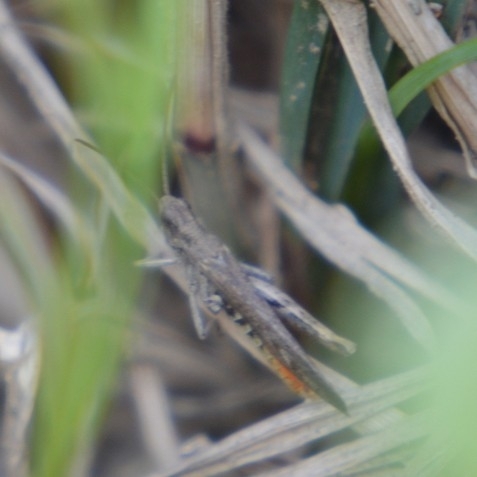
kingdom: Animalia
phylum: Arthropoda
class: Insecta
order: Orthoptera
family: Acrididae
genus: Chorthippus
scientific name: Chorthippus brunneus
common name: Field grasshopper
